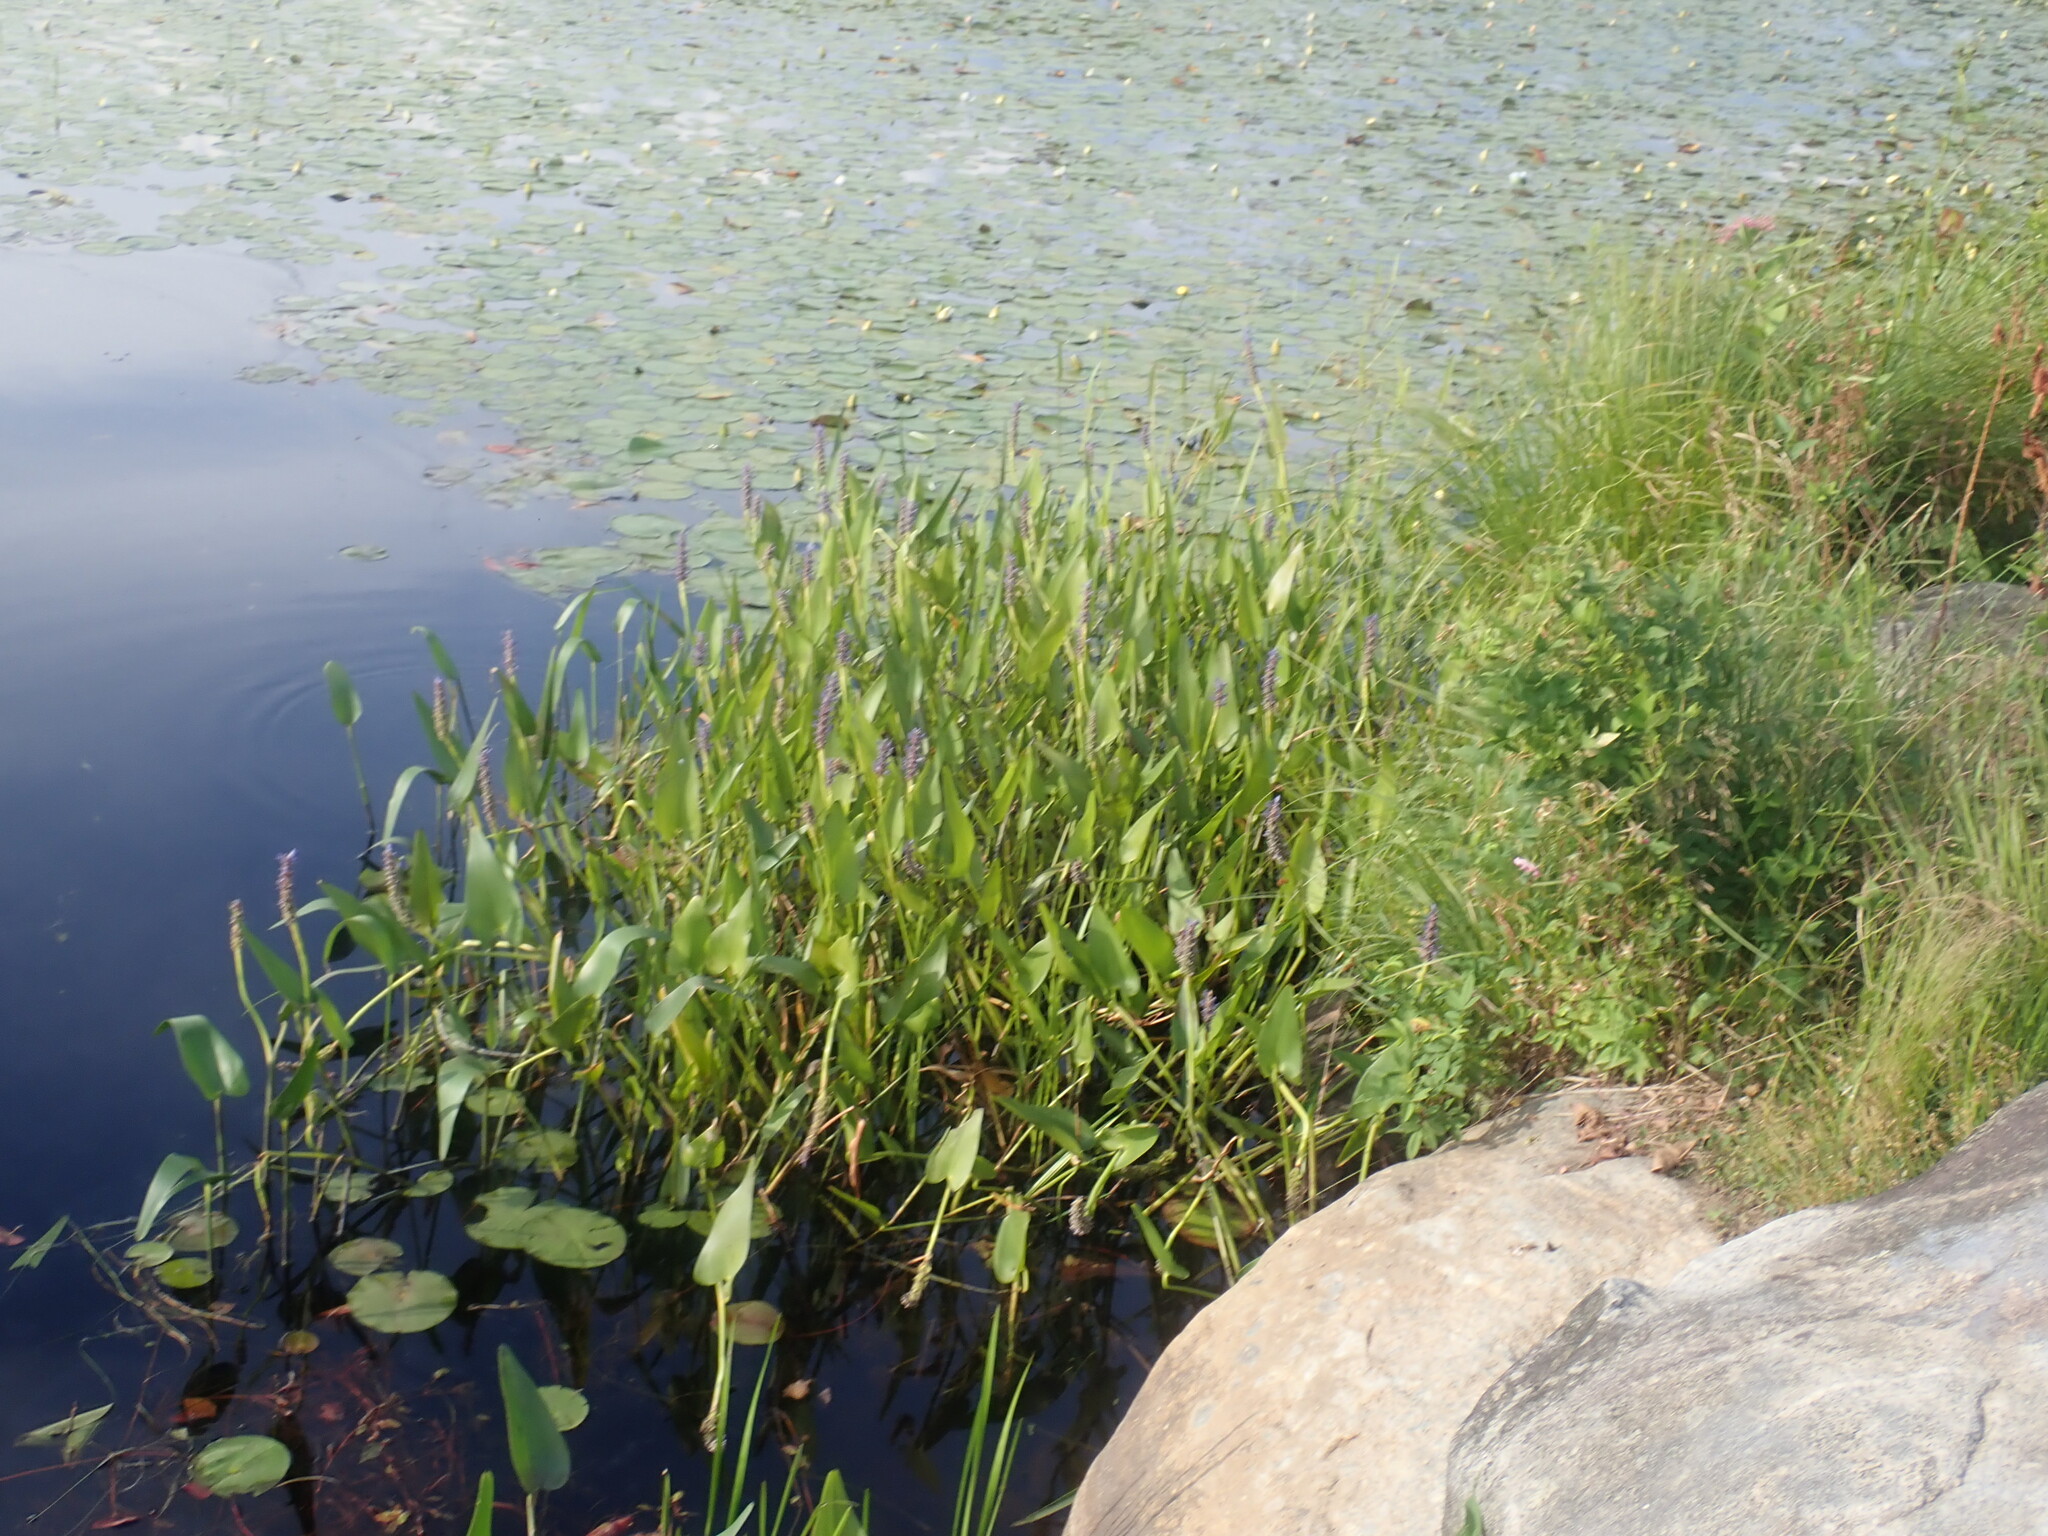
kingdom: Plantae
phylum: Tracheophyta
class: Liliopsida
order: Commelinales
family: Pontederiaceae
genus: Pontederia
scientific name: Pontederia cordata
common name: Pickerelweed
